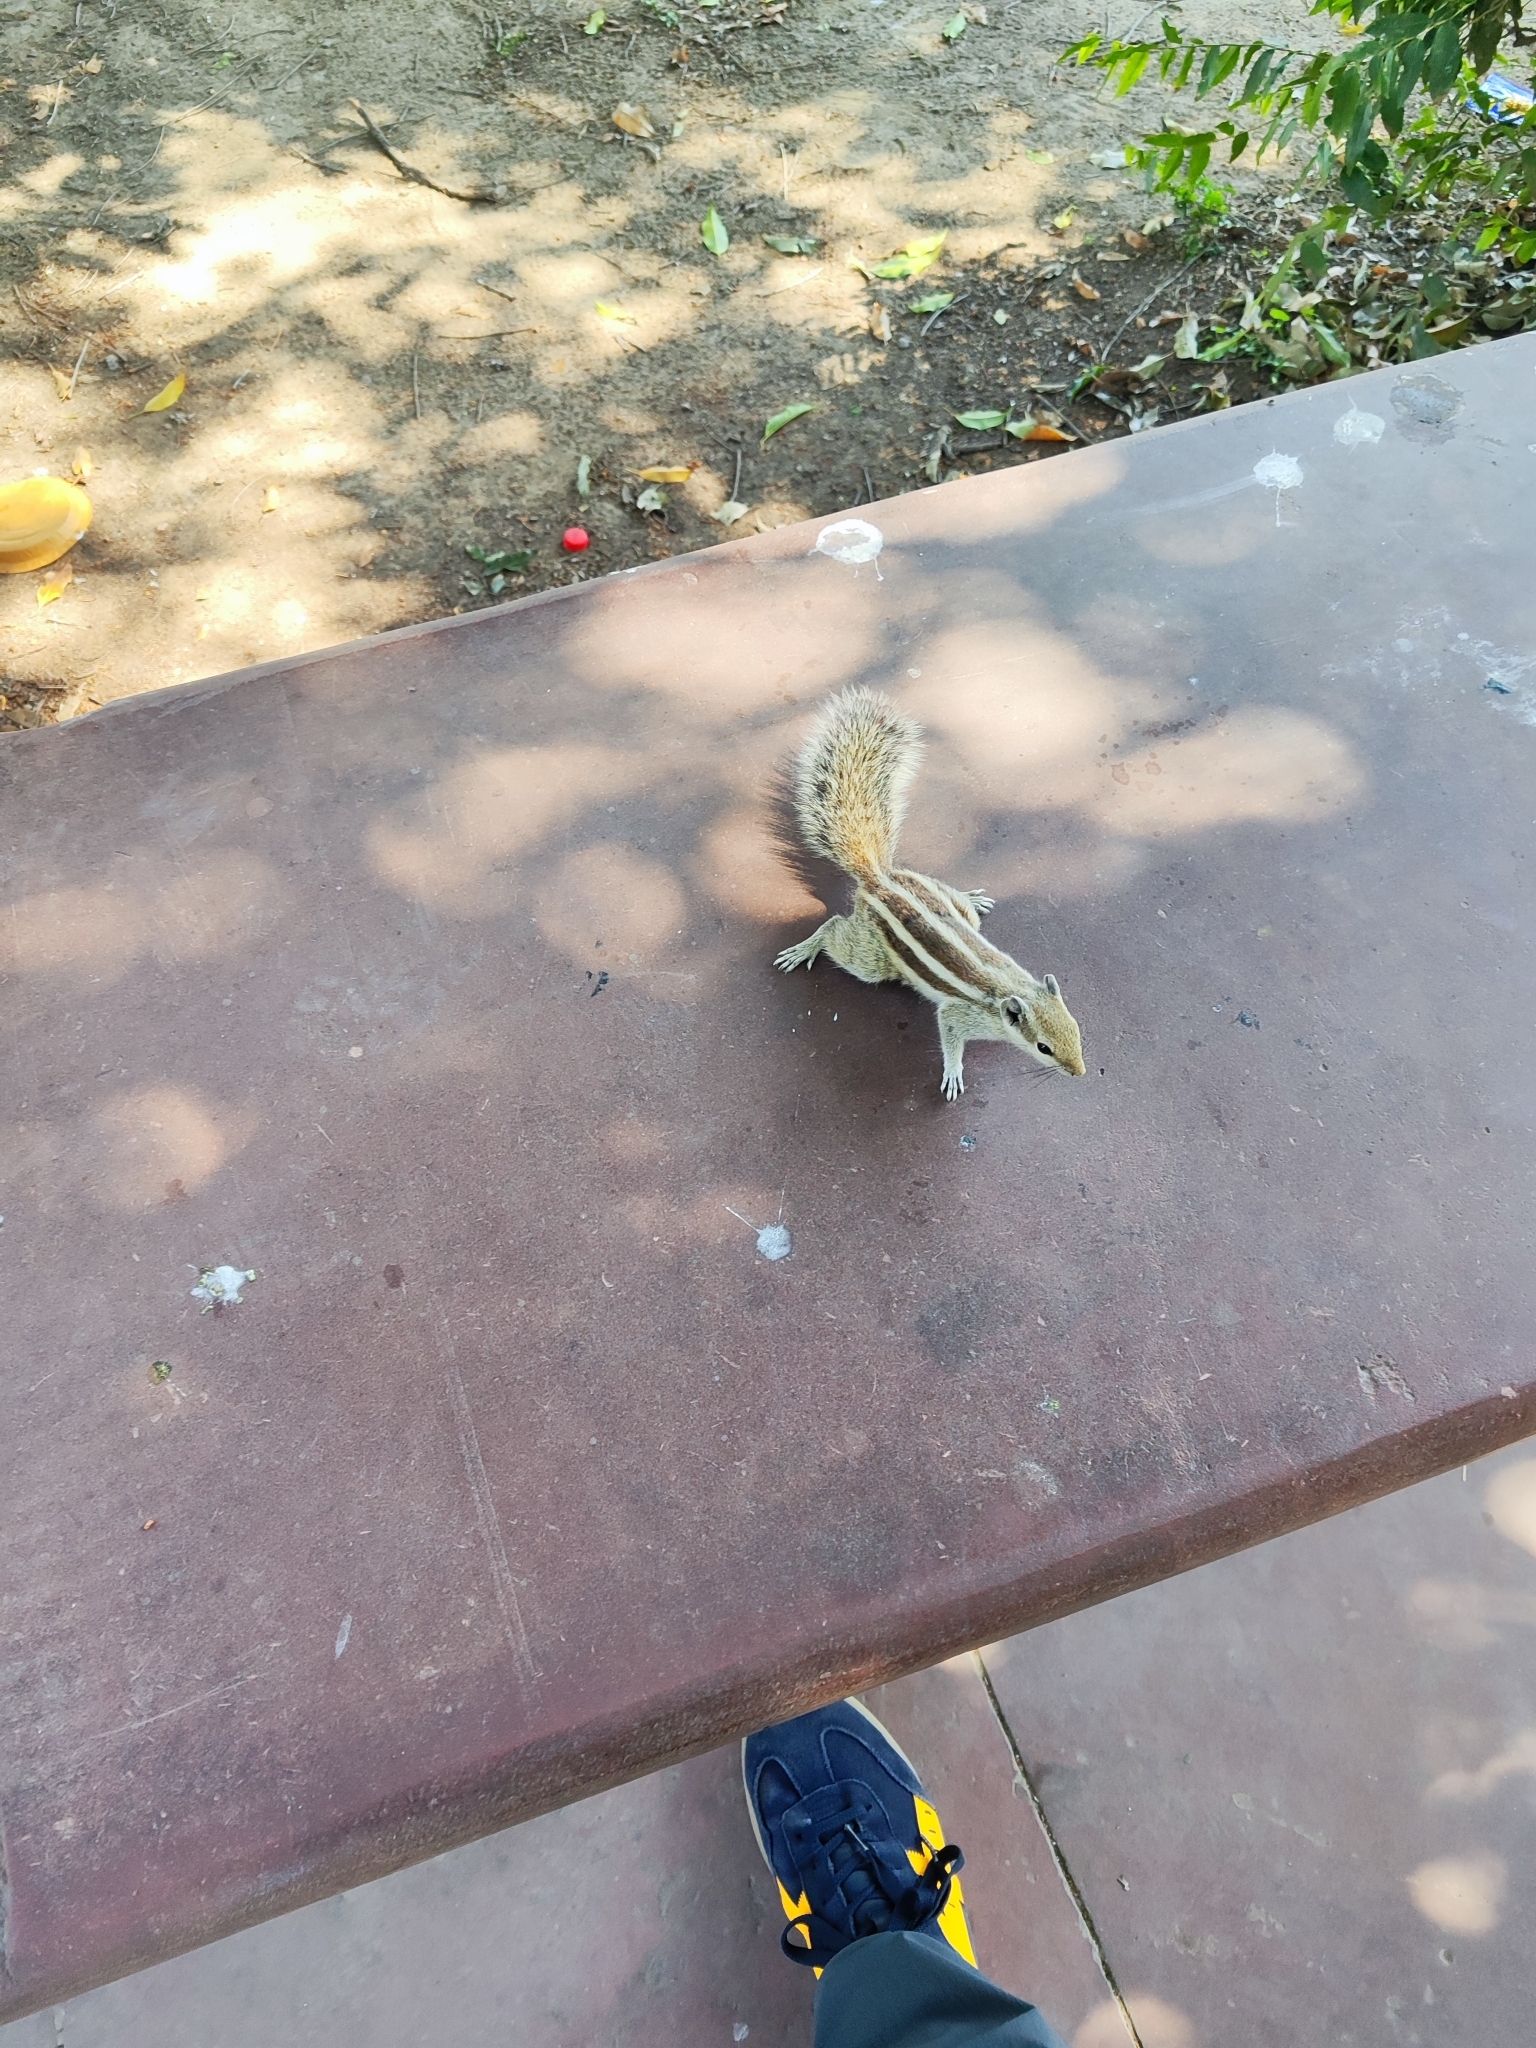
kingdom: Animalia
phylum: Chordata
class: Mammalia
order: Rodentia
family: Sciuridae
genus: Funambulus
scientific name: Funambulus pennantii
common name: Northern palm squirrel
